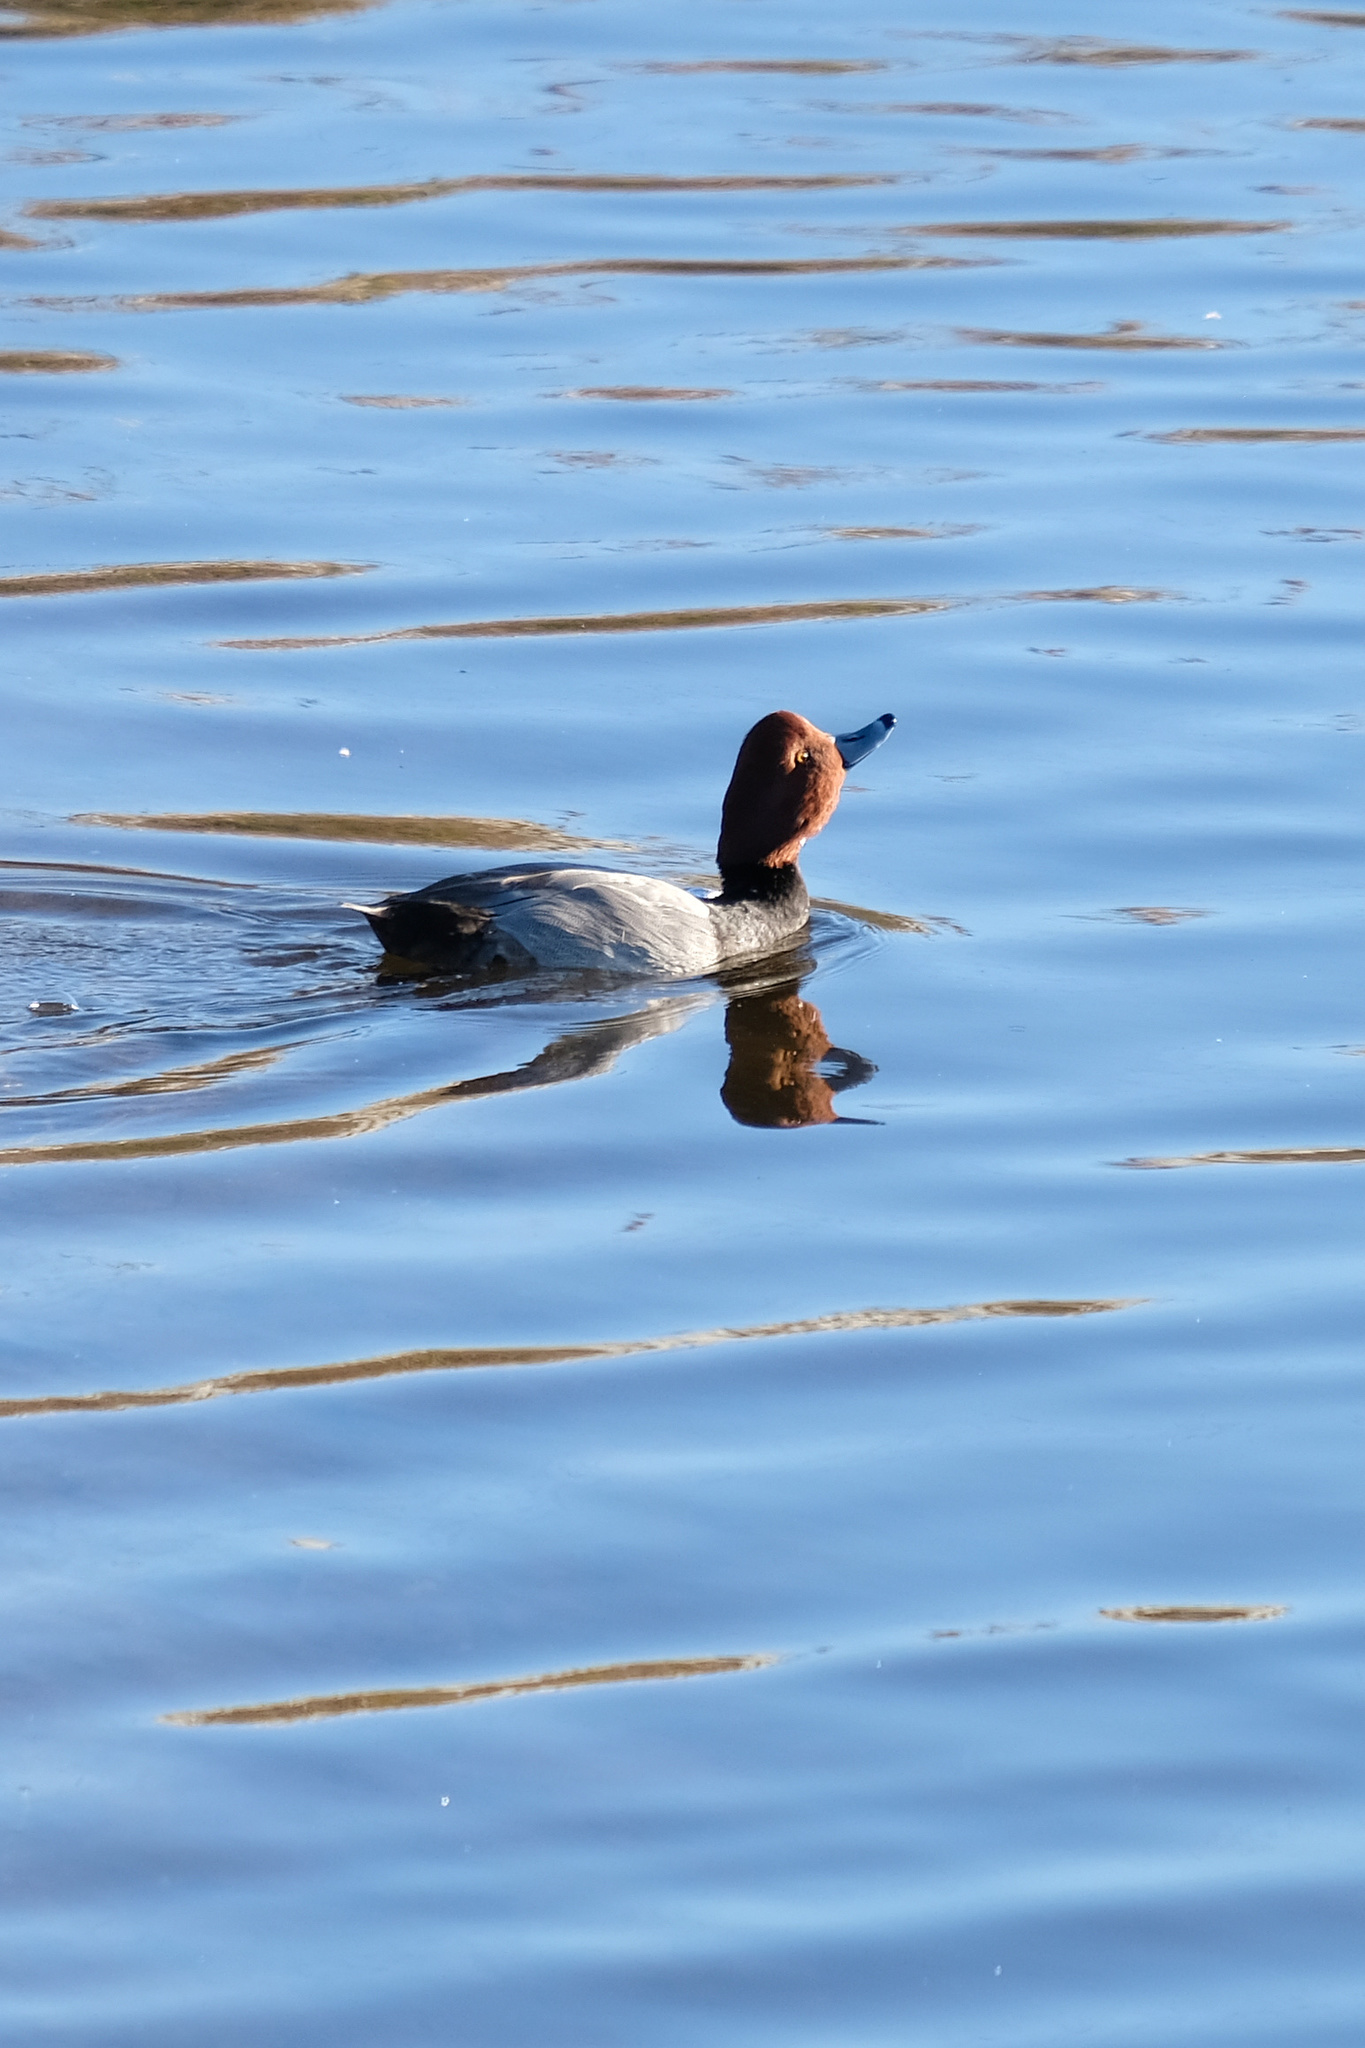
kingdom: Animalia
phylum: Chordata
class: Aves
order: Anseriformes
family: Anatidae
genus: Aythya
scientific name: Aythya americana
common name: Redhead
